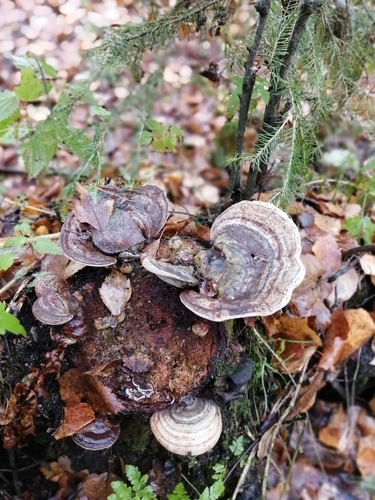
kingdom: Fungi
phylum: Basidiomycota
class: Agaricomycetes
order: Polyporales
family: Polyporaceae
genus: Ganoderma
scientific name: Ganoderma applanatum
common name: Artist's bracket
